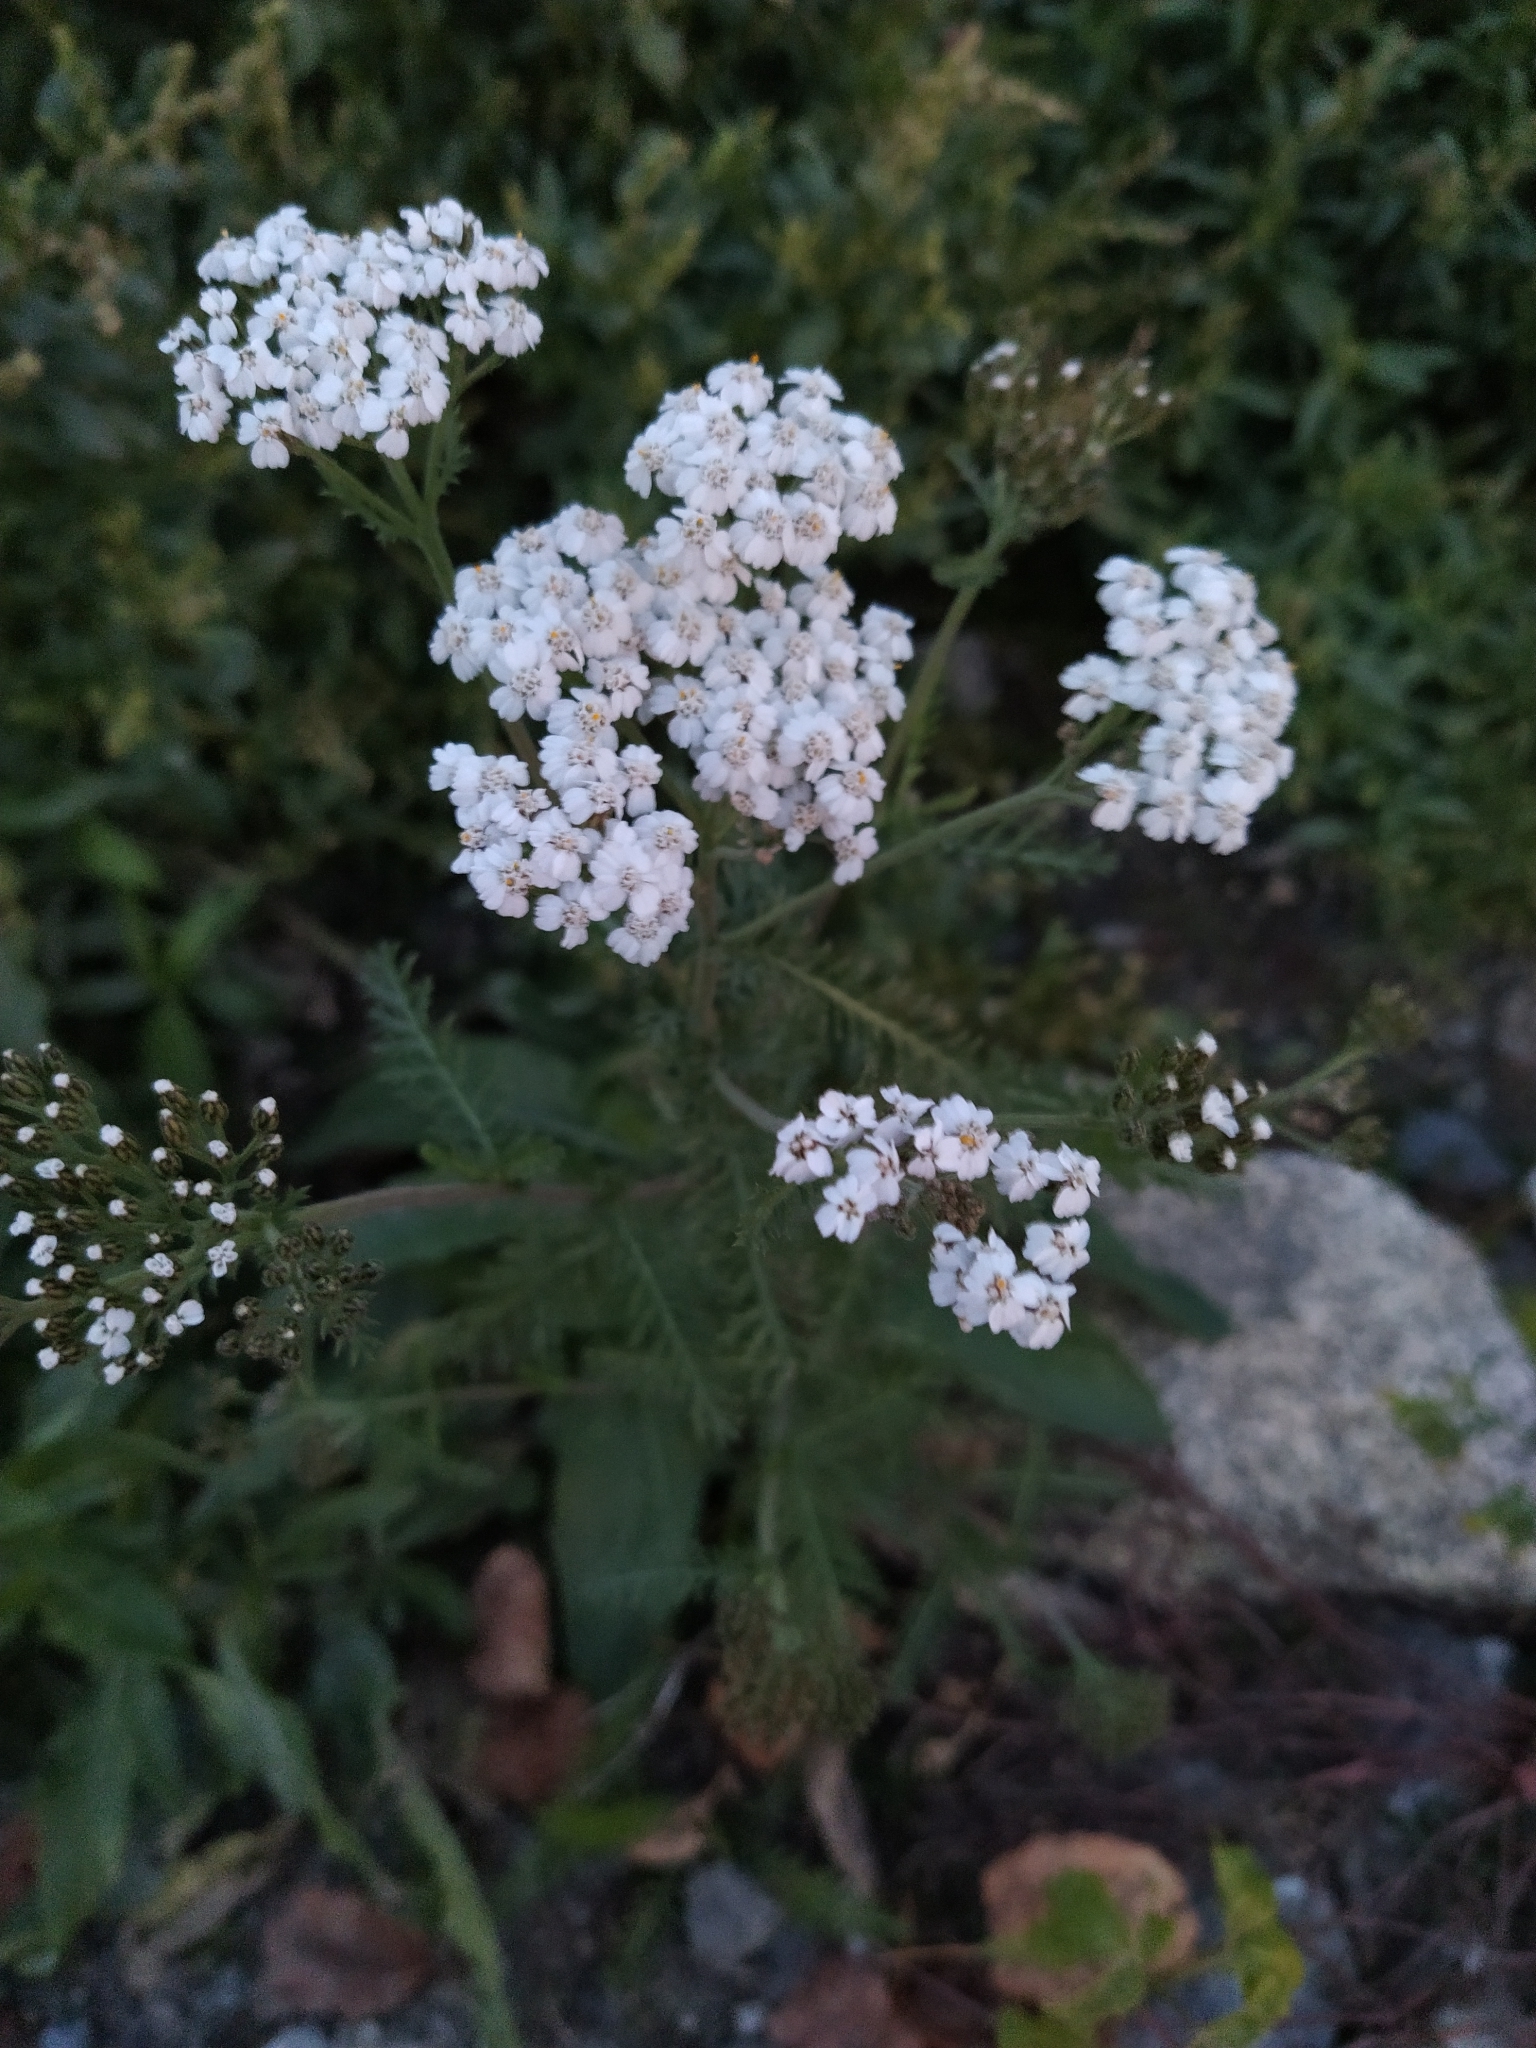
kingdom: Plantae
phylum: Tracheophyta
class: Magnoliopsida
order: Asterales
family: Asteraceae
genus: Achillea
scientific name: Achillea millefolium
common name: Yarrow
